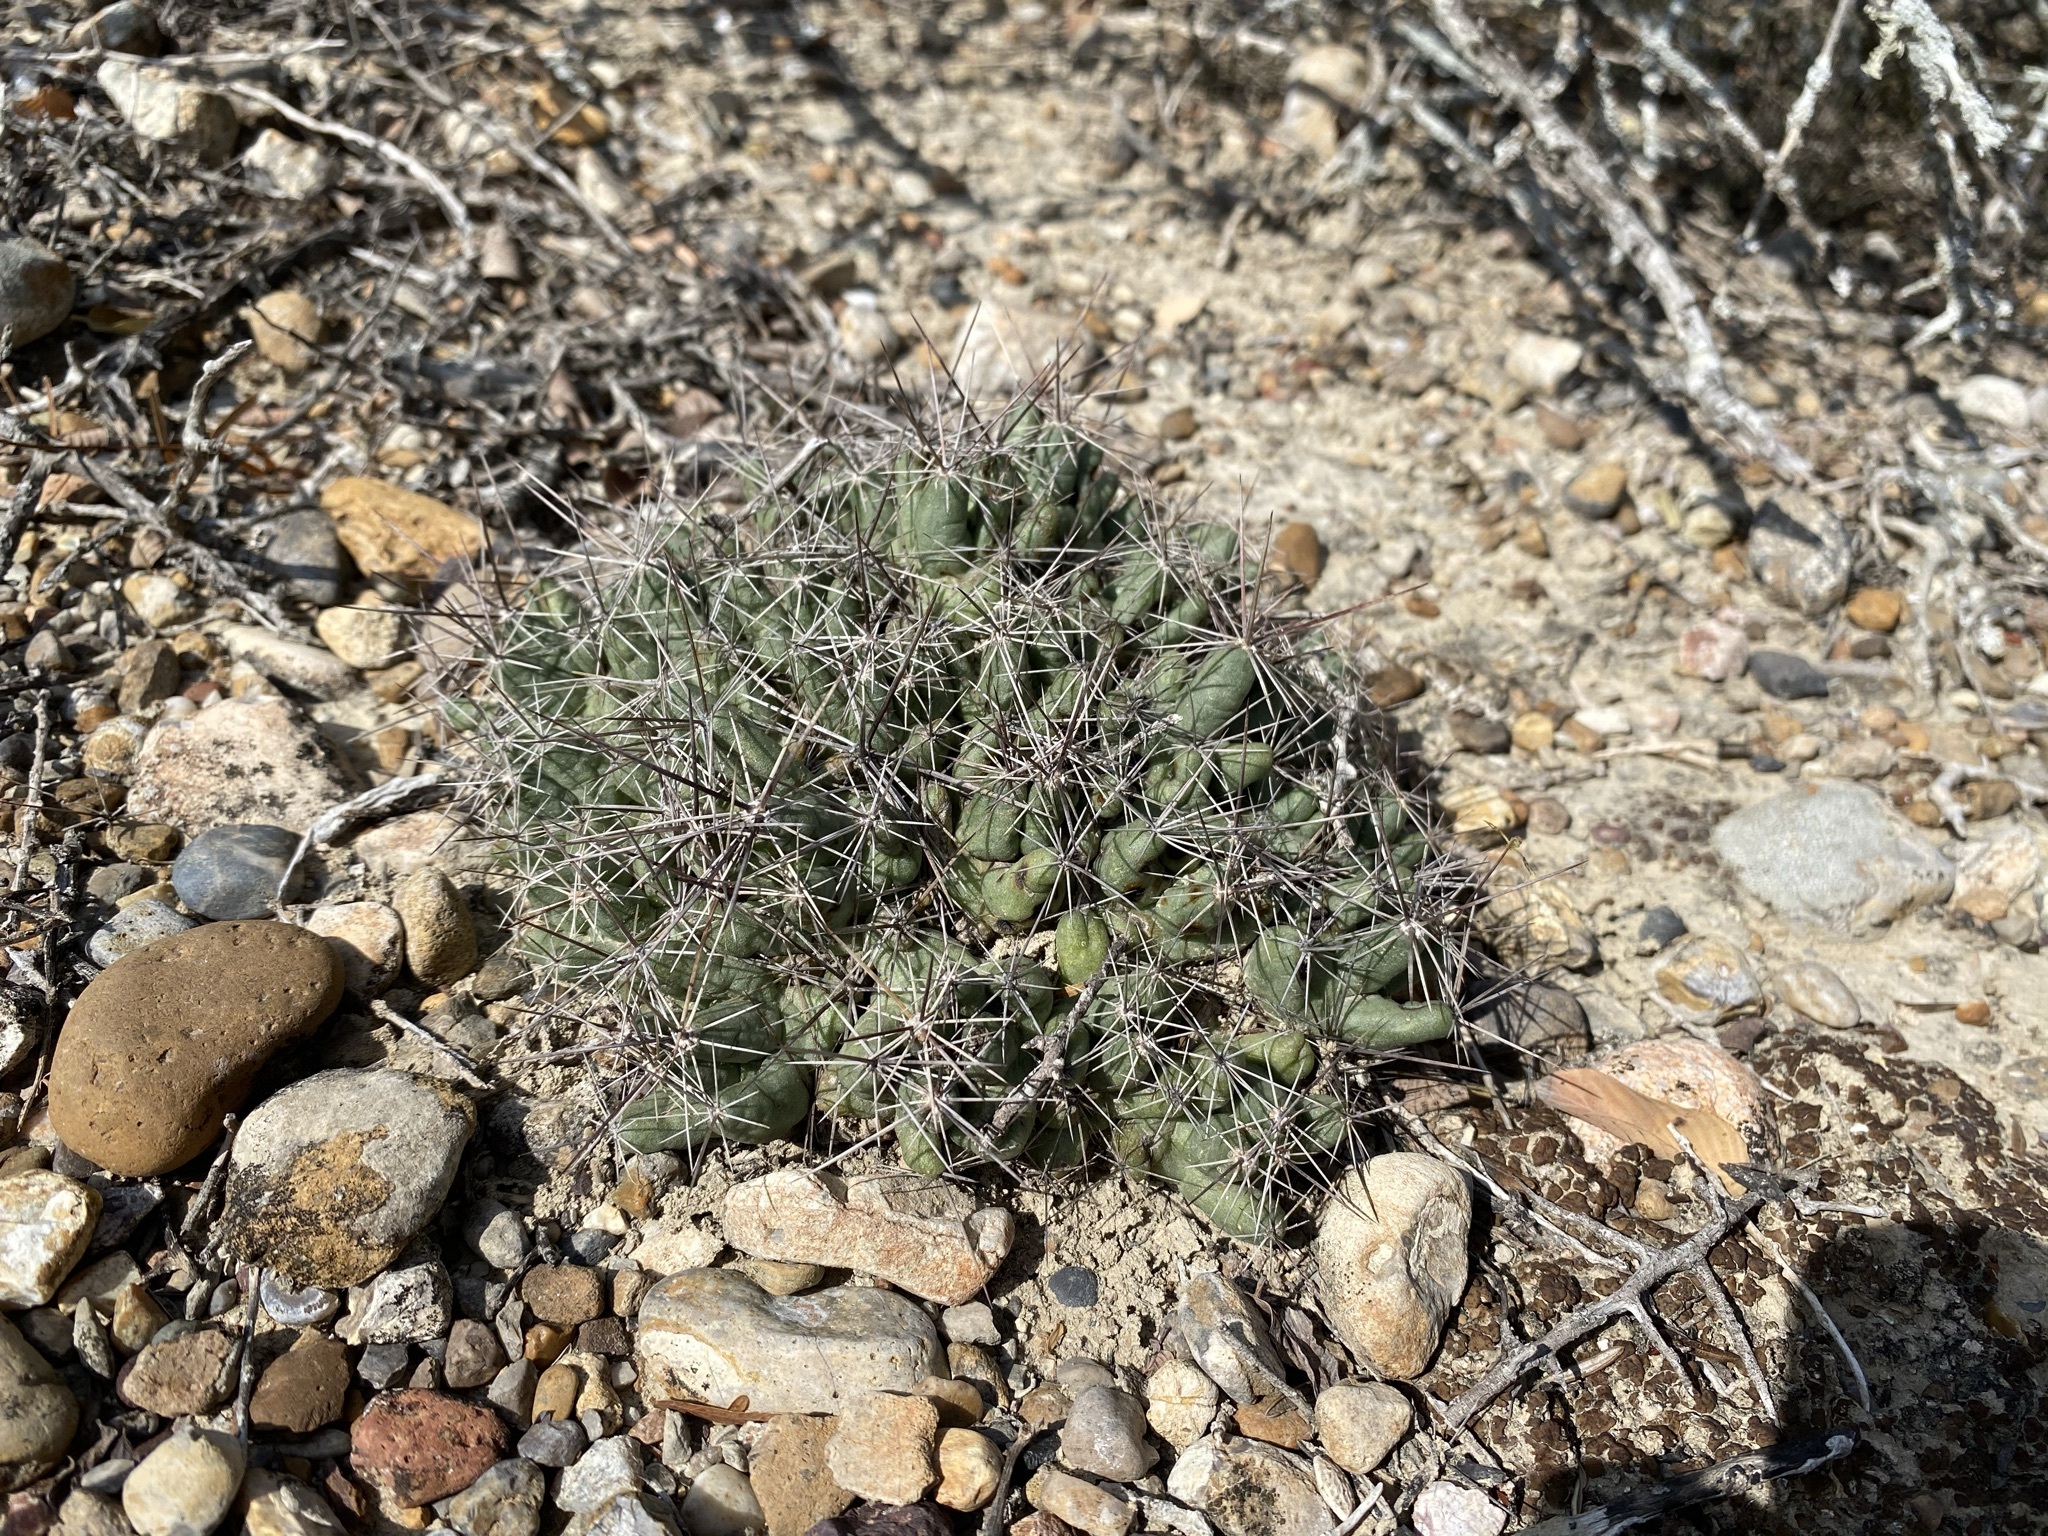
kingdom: Plantae
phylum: Tracheophyta
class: Magnoliopsida
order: Caryophyllales
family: Cactaceae
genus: Pelecyphora
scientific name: Pelecyphora macromeris
